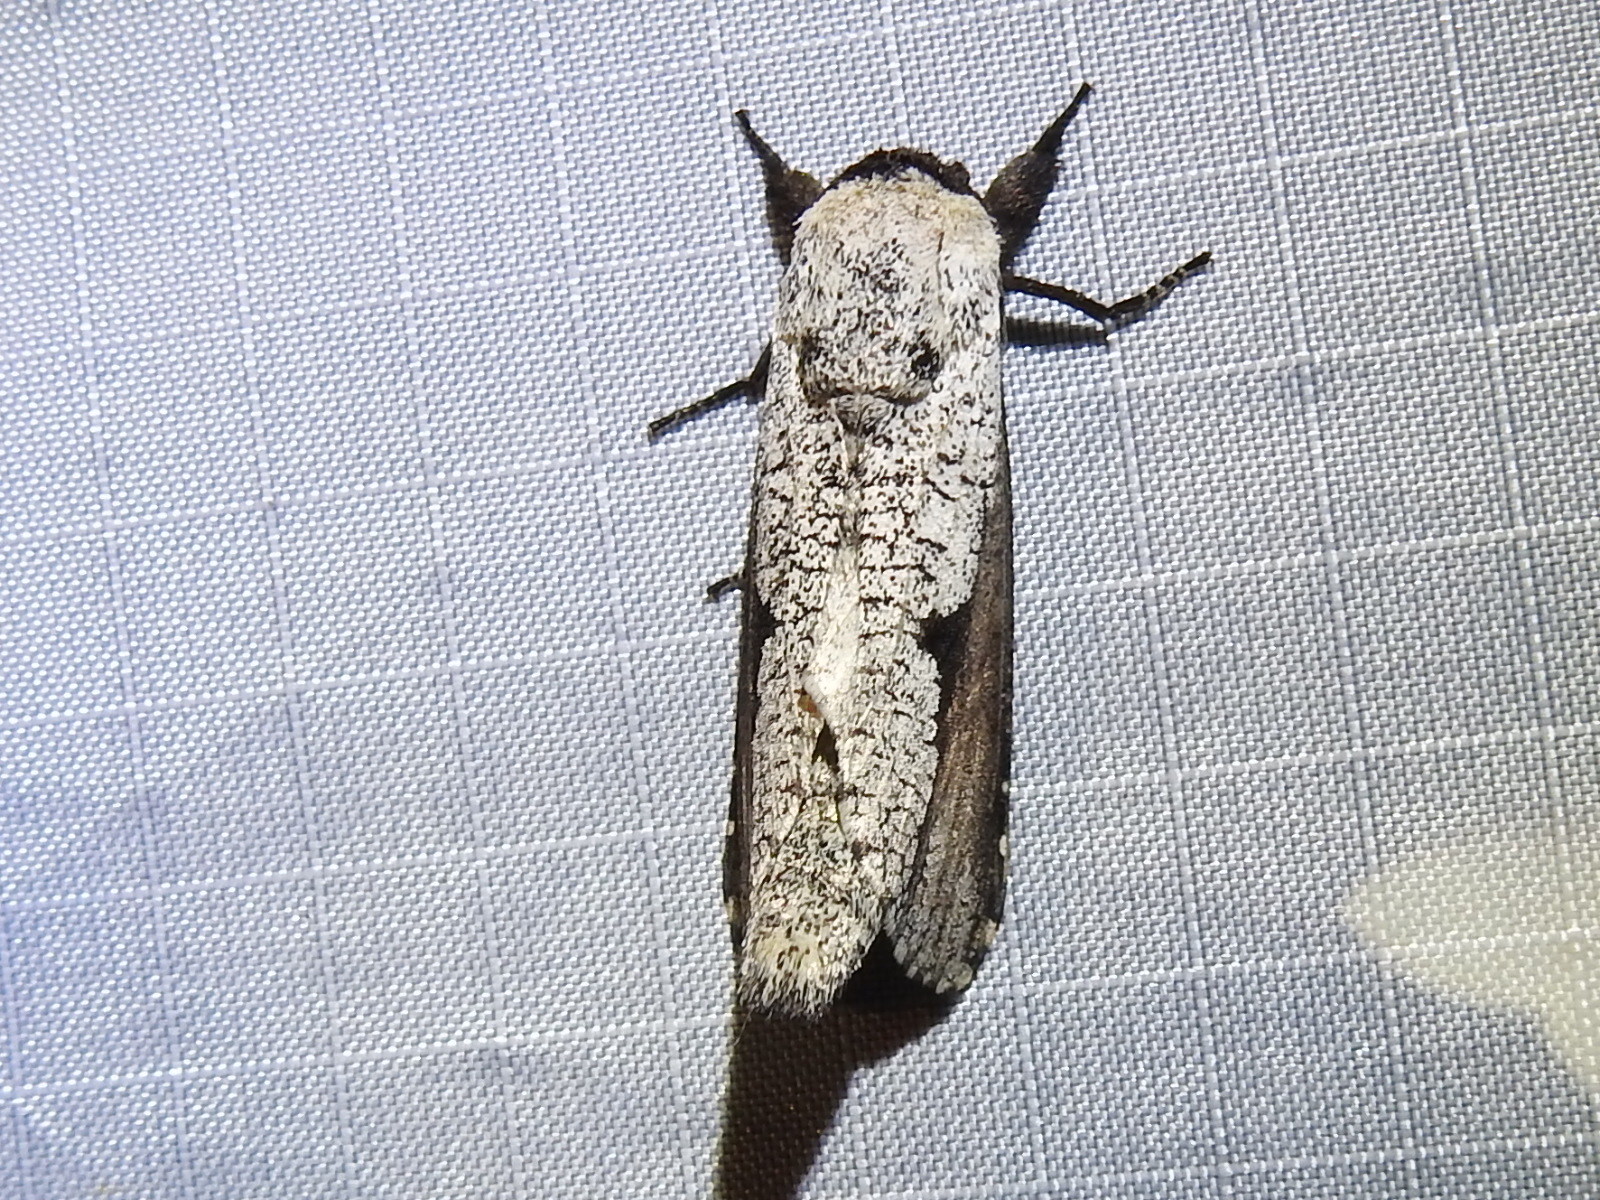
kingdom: Animalia
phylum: Arthropoda
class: Insecta
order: Lepidoptera
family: Cossidae
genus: Brypoctia
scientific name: Brypoctia
